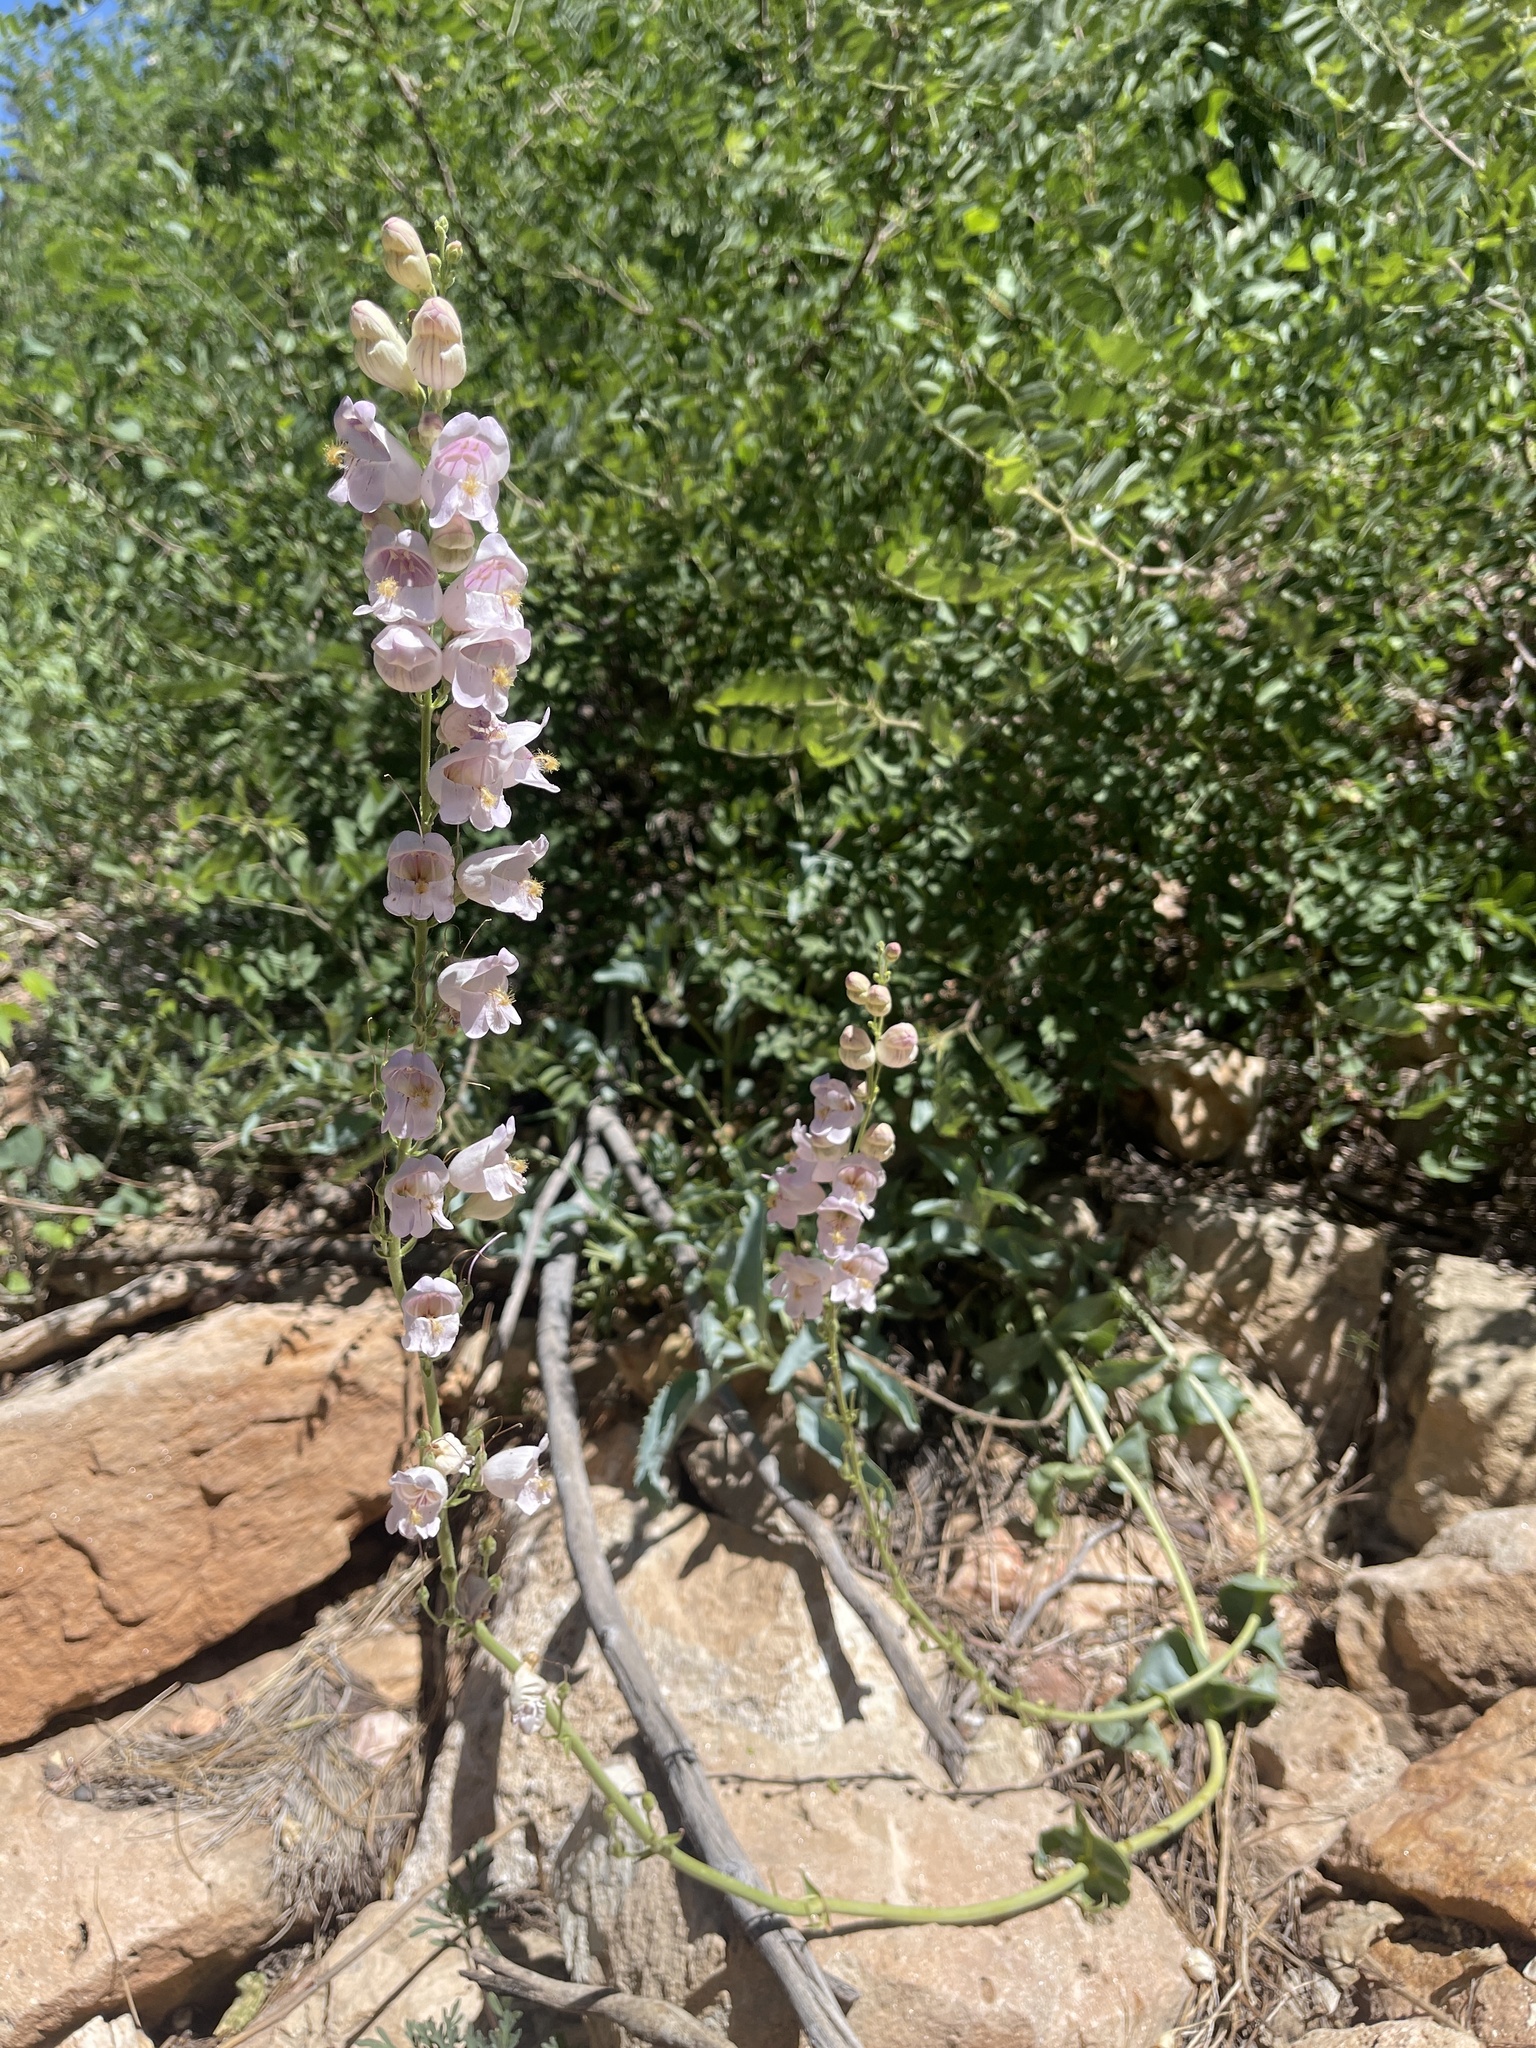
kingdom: Plantae
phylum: Tracheophyta
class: Magnoliopsida
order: Lamiales
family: Plantaginaceae
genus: Penstemon
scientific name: Penstemon palmeri
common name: Palmer penstemon
